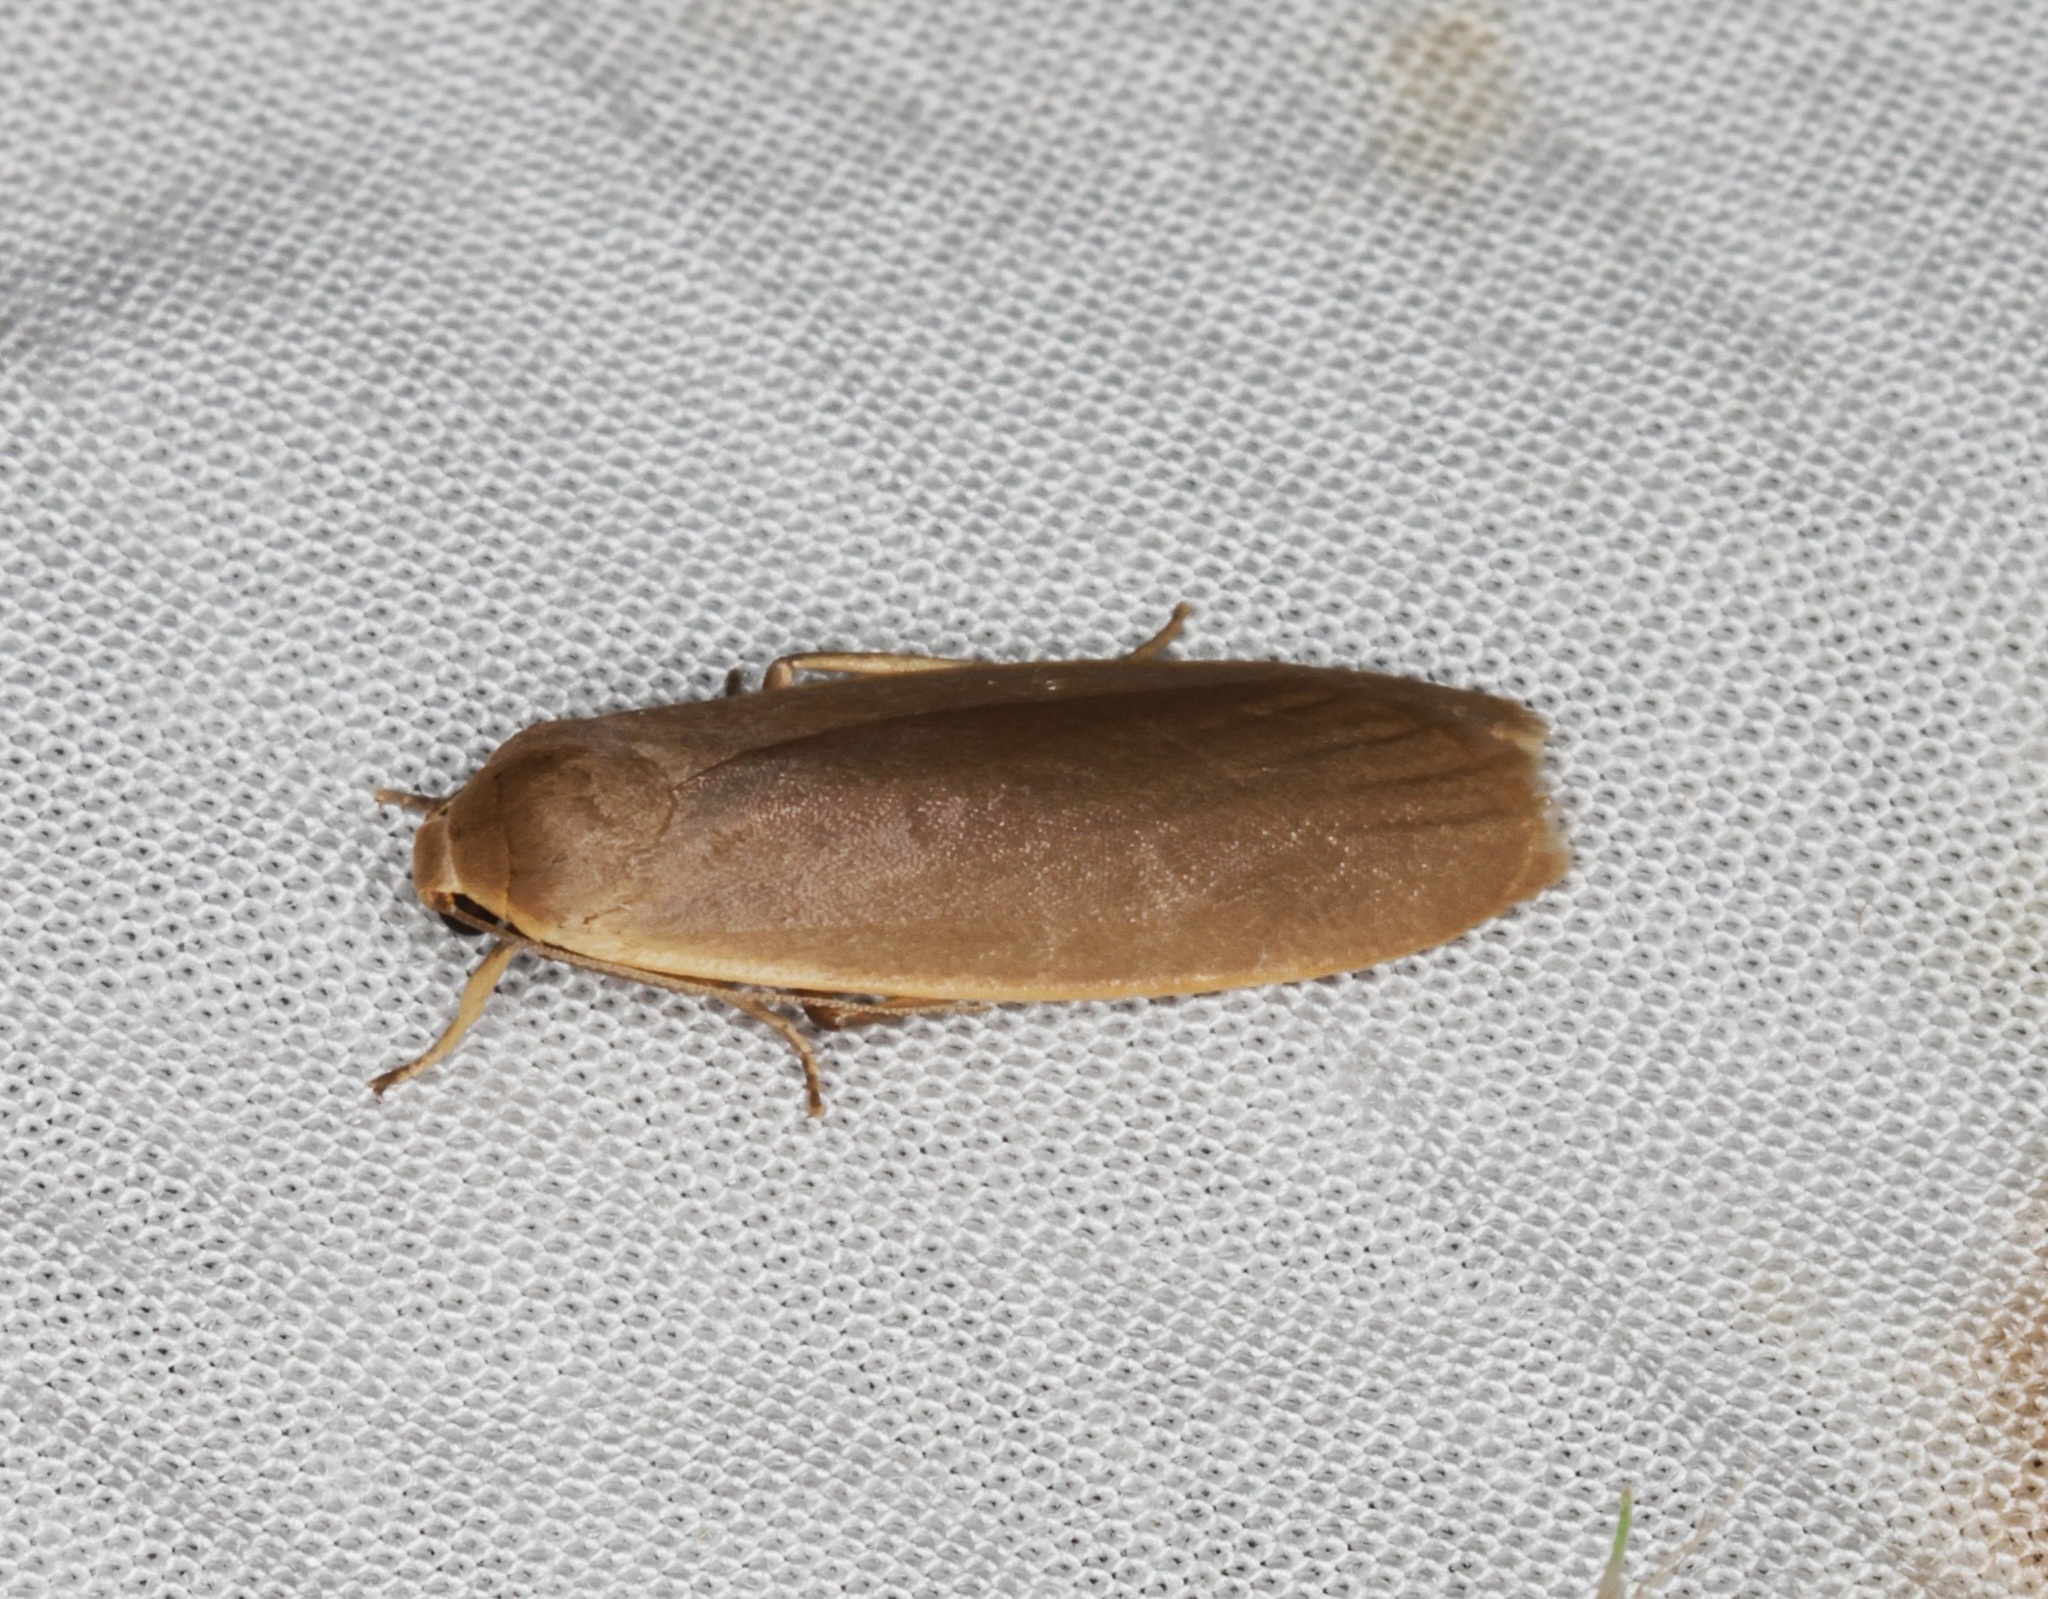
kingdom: Animalia
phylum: Arthropoda
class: Insecta
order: Lepidoptera
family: Erebidae
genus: Danielithosia
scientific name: Danielithosia immaculata
